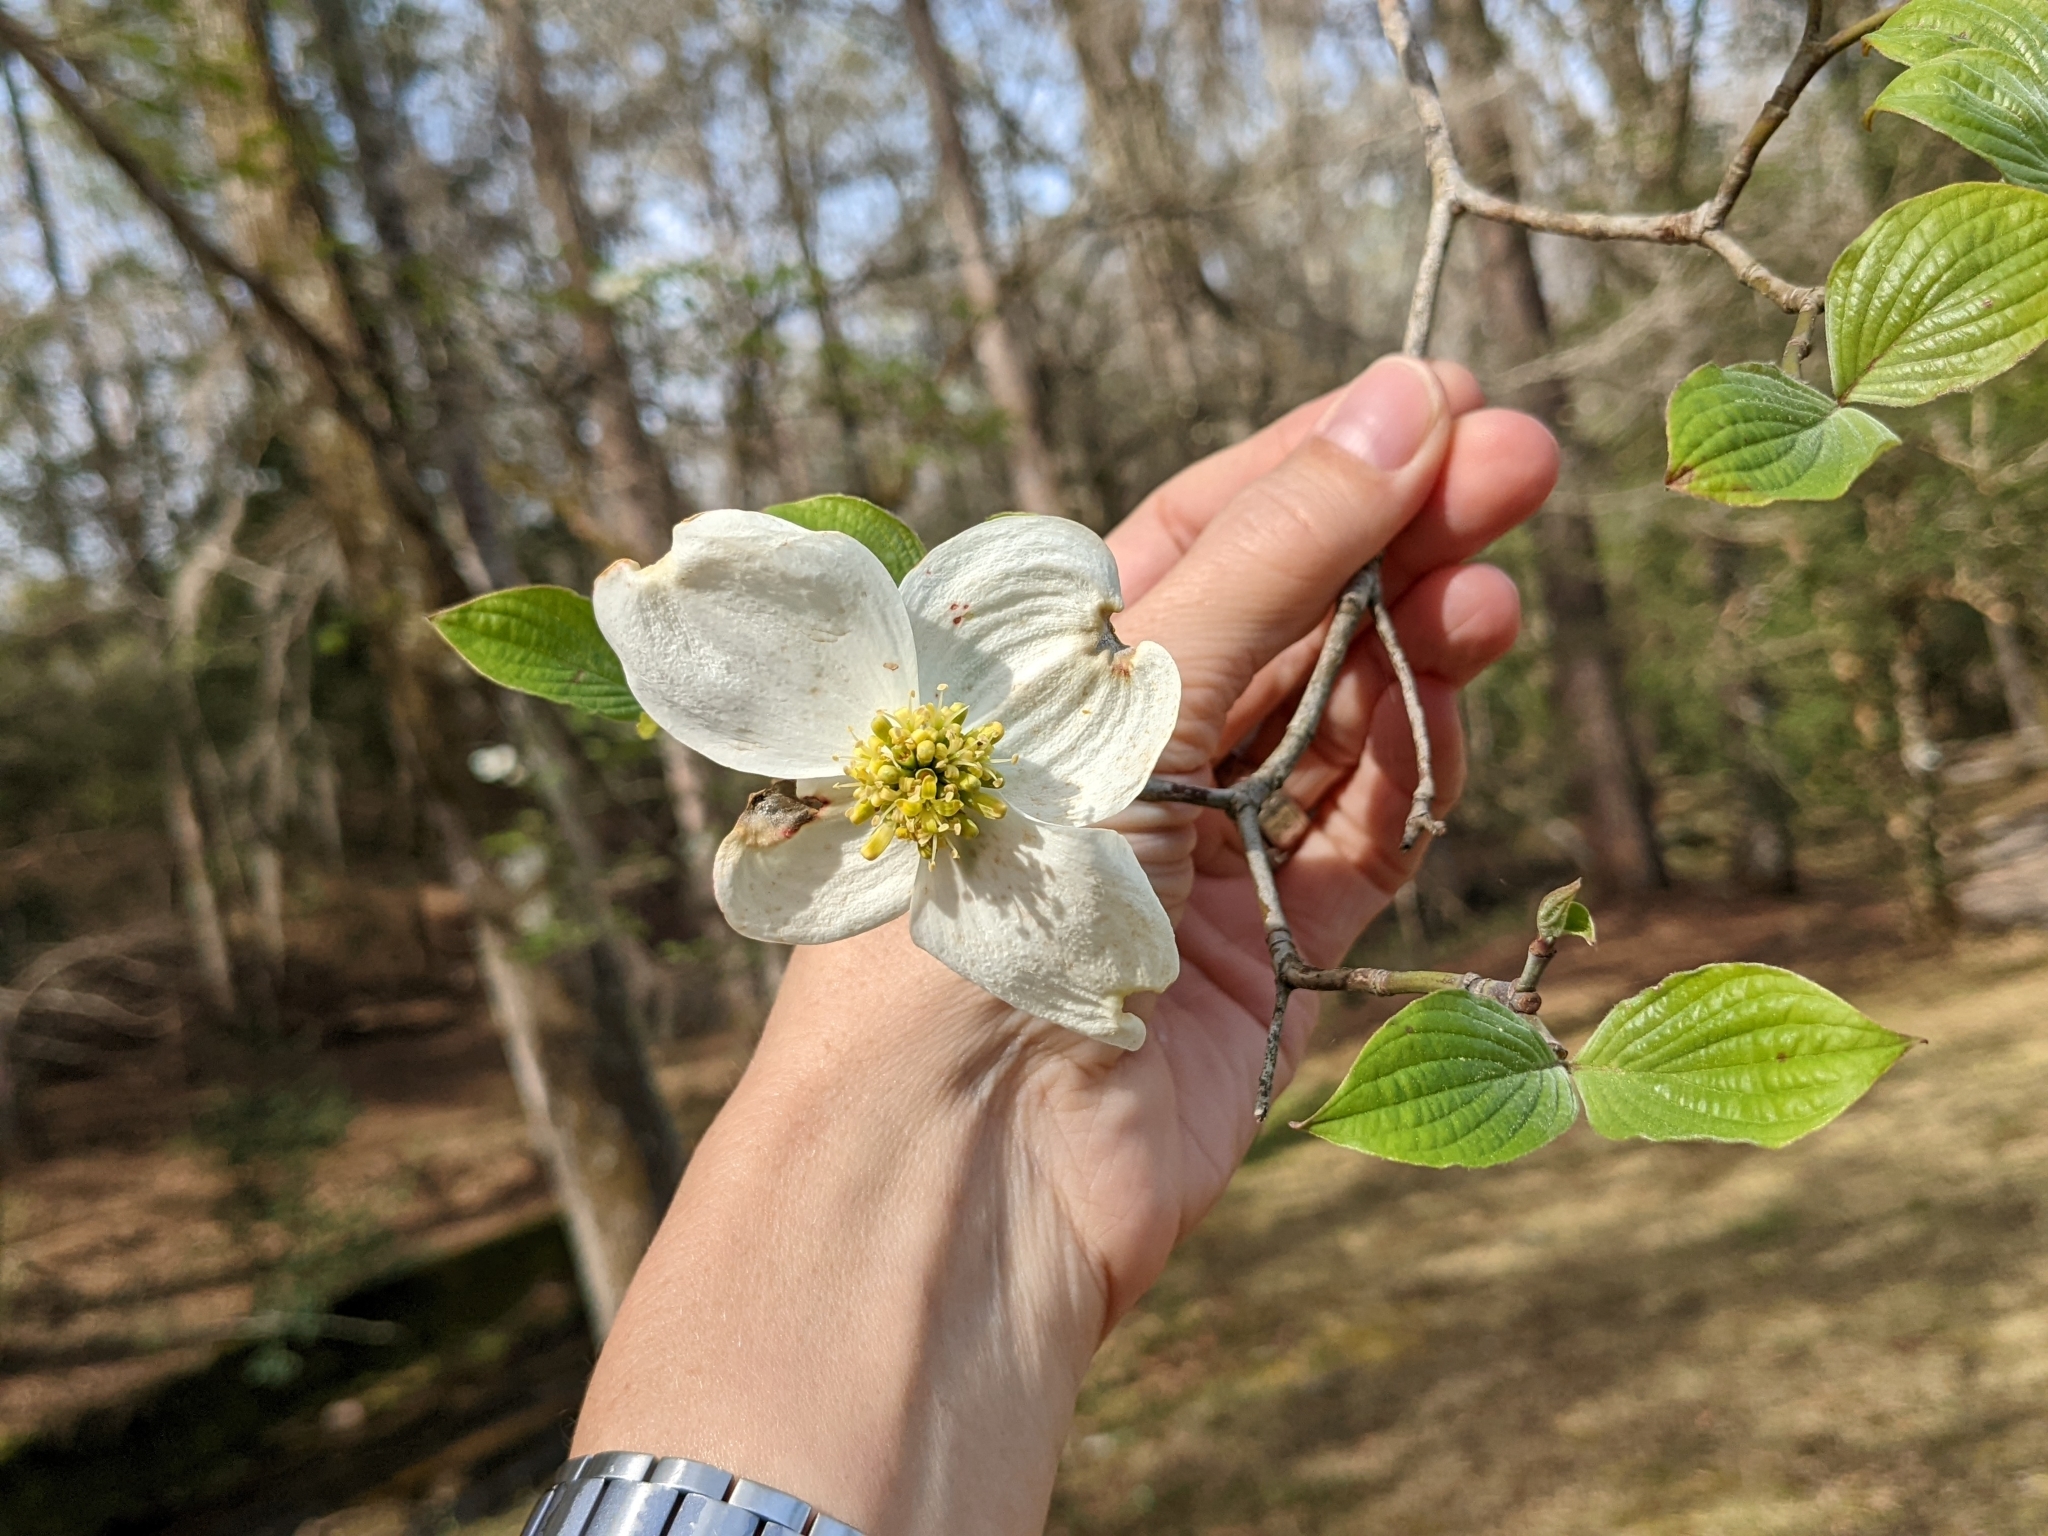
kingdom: Plantae
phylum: Tracheophyta
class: Magnoliopsida
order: Cornales
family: Cornaceae
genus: Cornus
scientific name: Cornus florida
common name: Flowering dogwood
